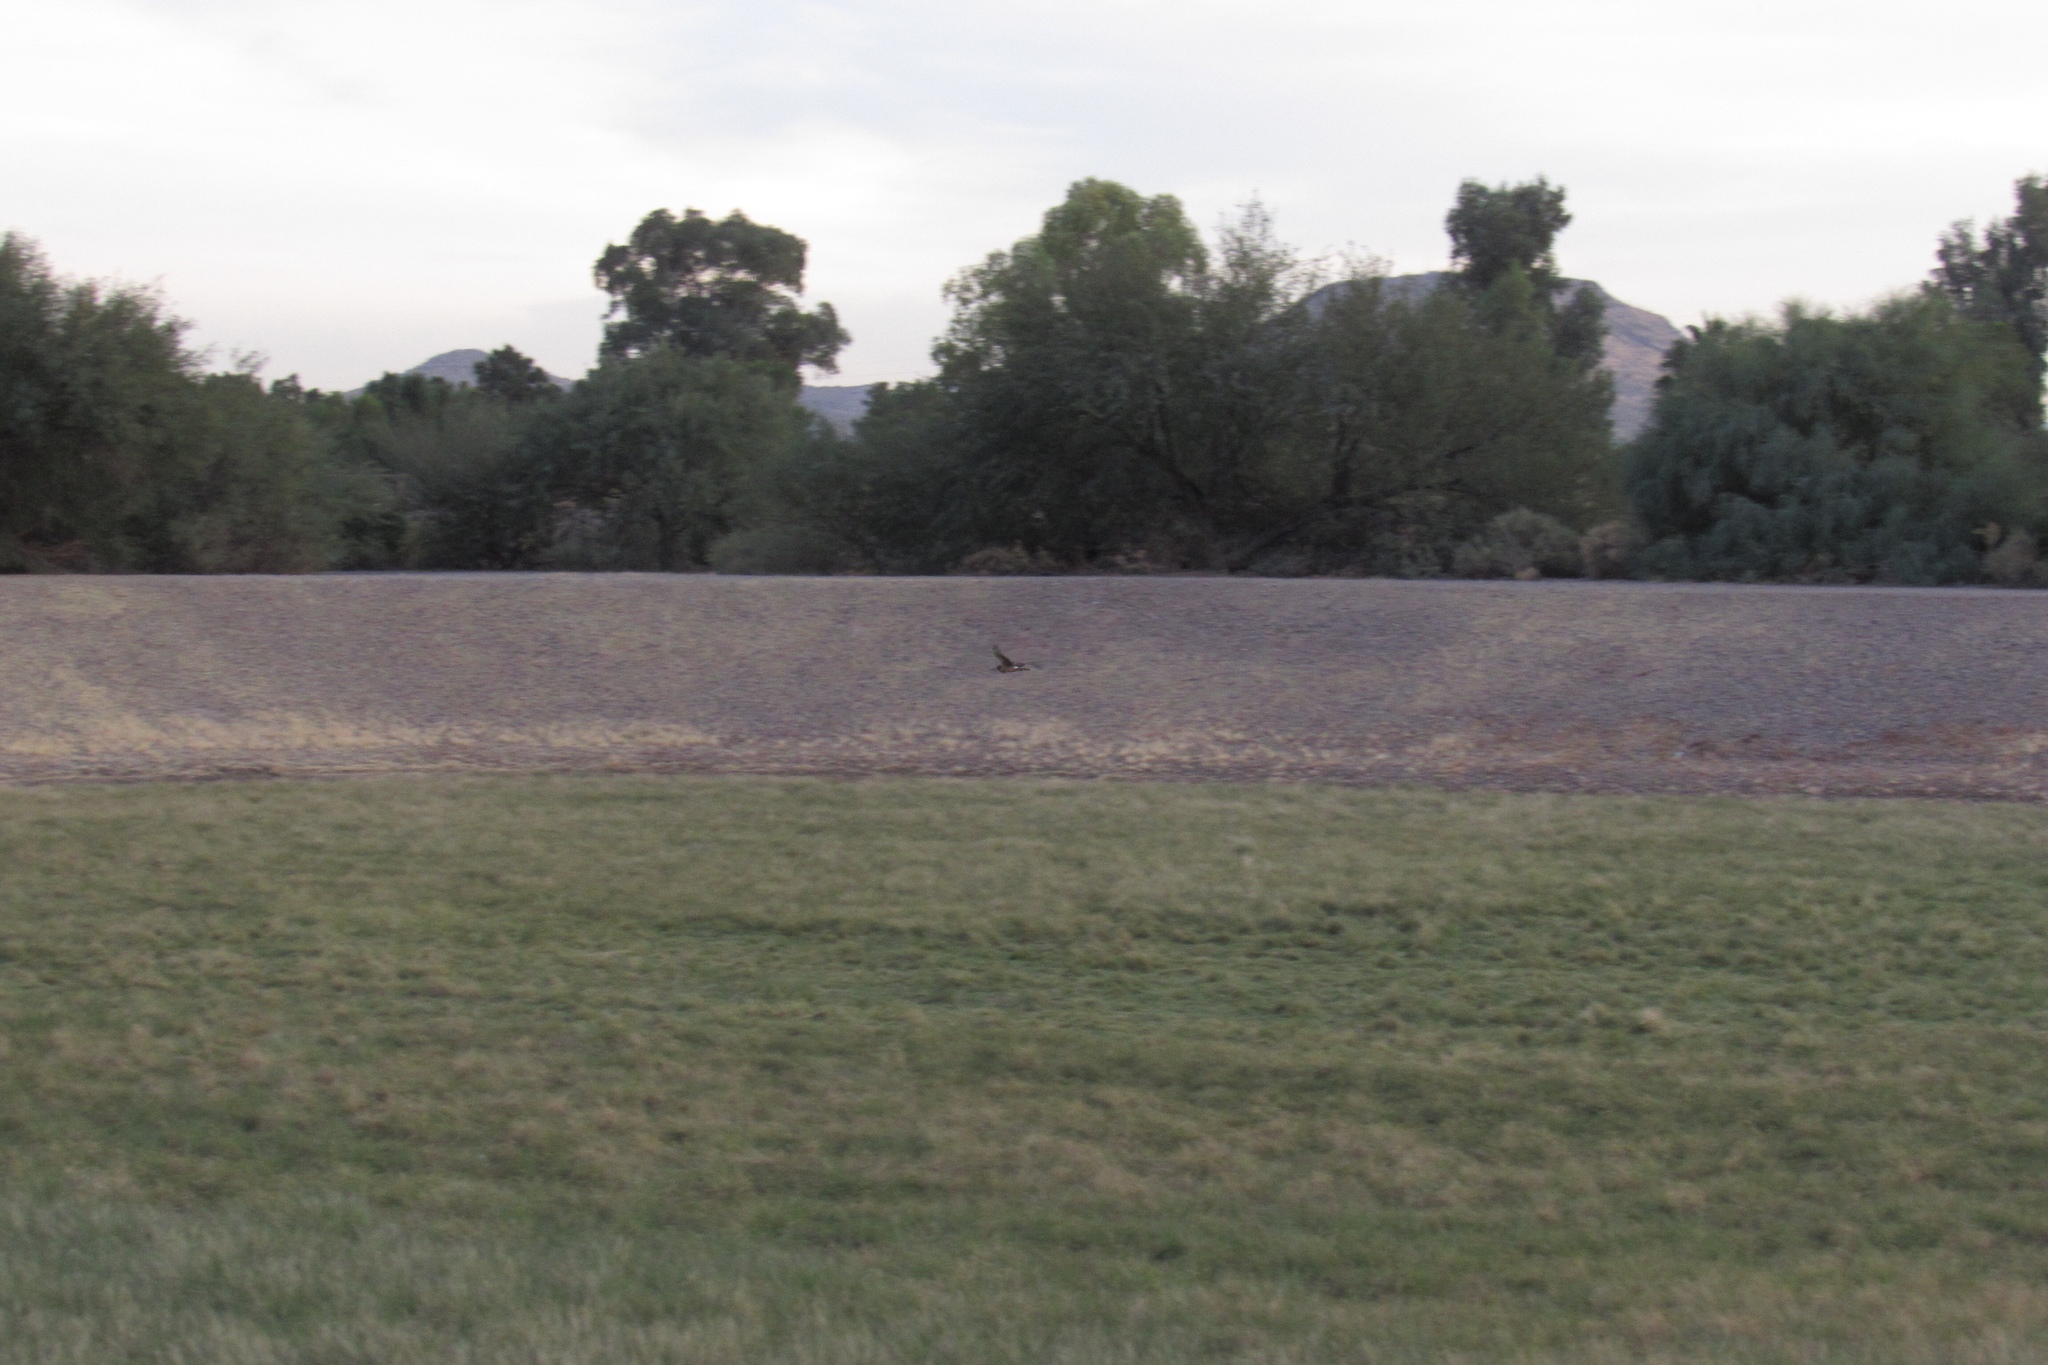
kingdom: Animalia
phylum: Chordata
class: Aves
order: Accipitriformes
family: Accipitridae
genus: Circus
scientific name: Circus cyaneus
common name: Hen harrier
